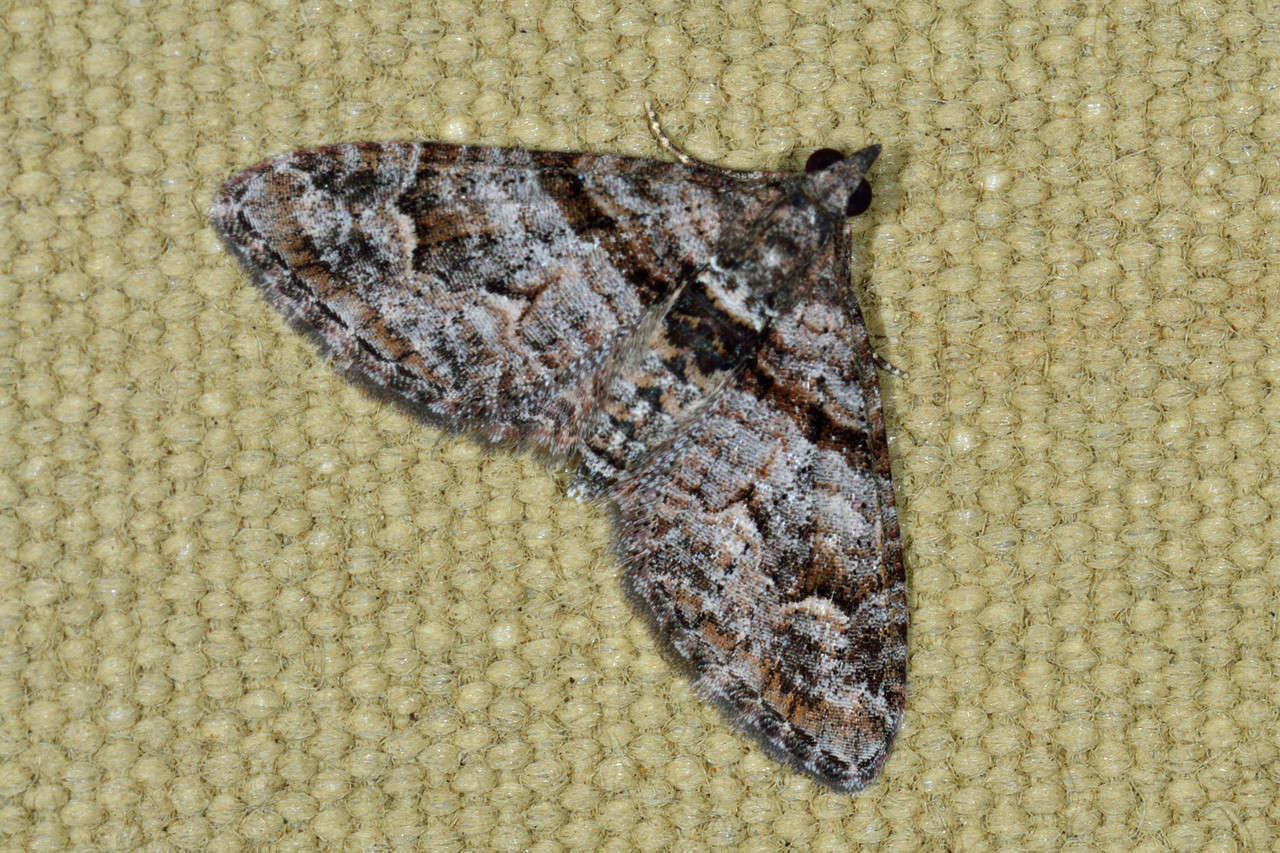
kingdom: Animalia
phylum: Arthropoda
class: Insecta
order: Lepidoptera
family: Geometridae
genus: Phrissogonus
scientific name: Phrissogonus laticostata
